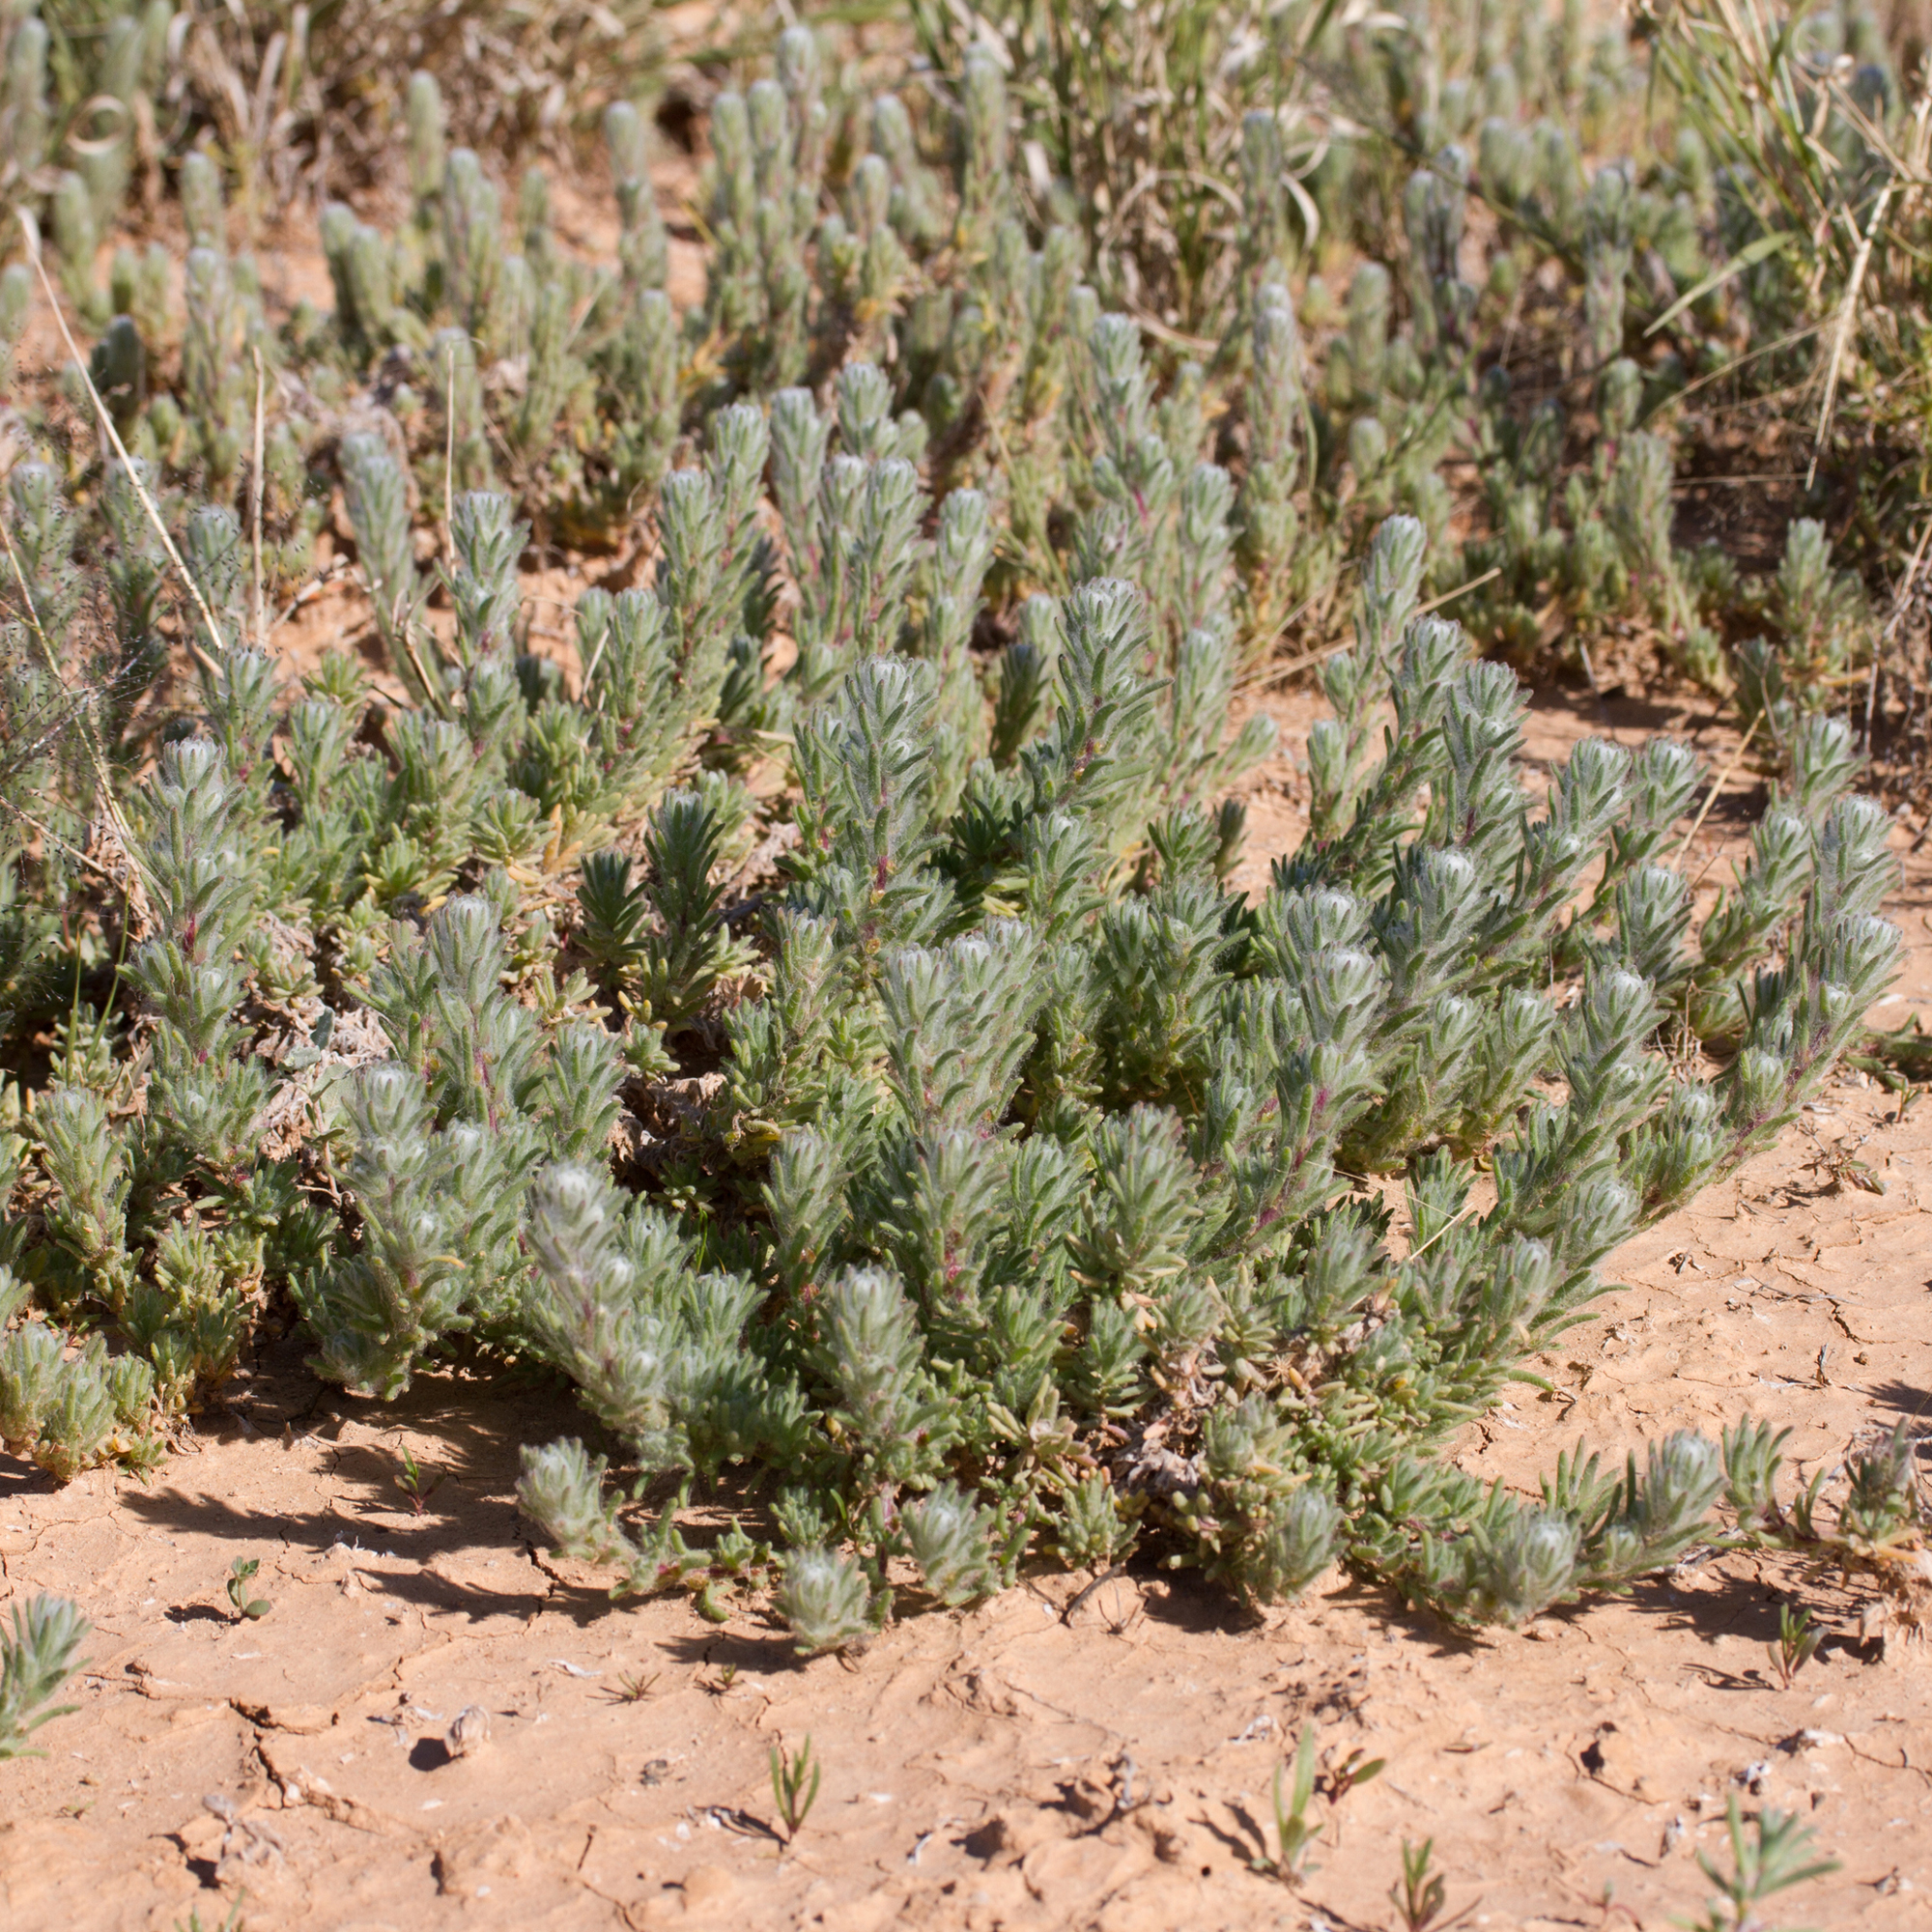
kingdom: Plantae
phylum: Tracheophyta
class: Magnoliopsida
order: Caryophyllales
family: Amaranthaceae
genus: Sclerolaena
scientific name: Sclerolaena brachyptera
